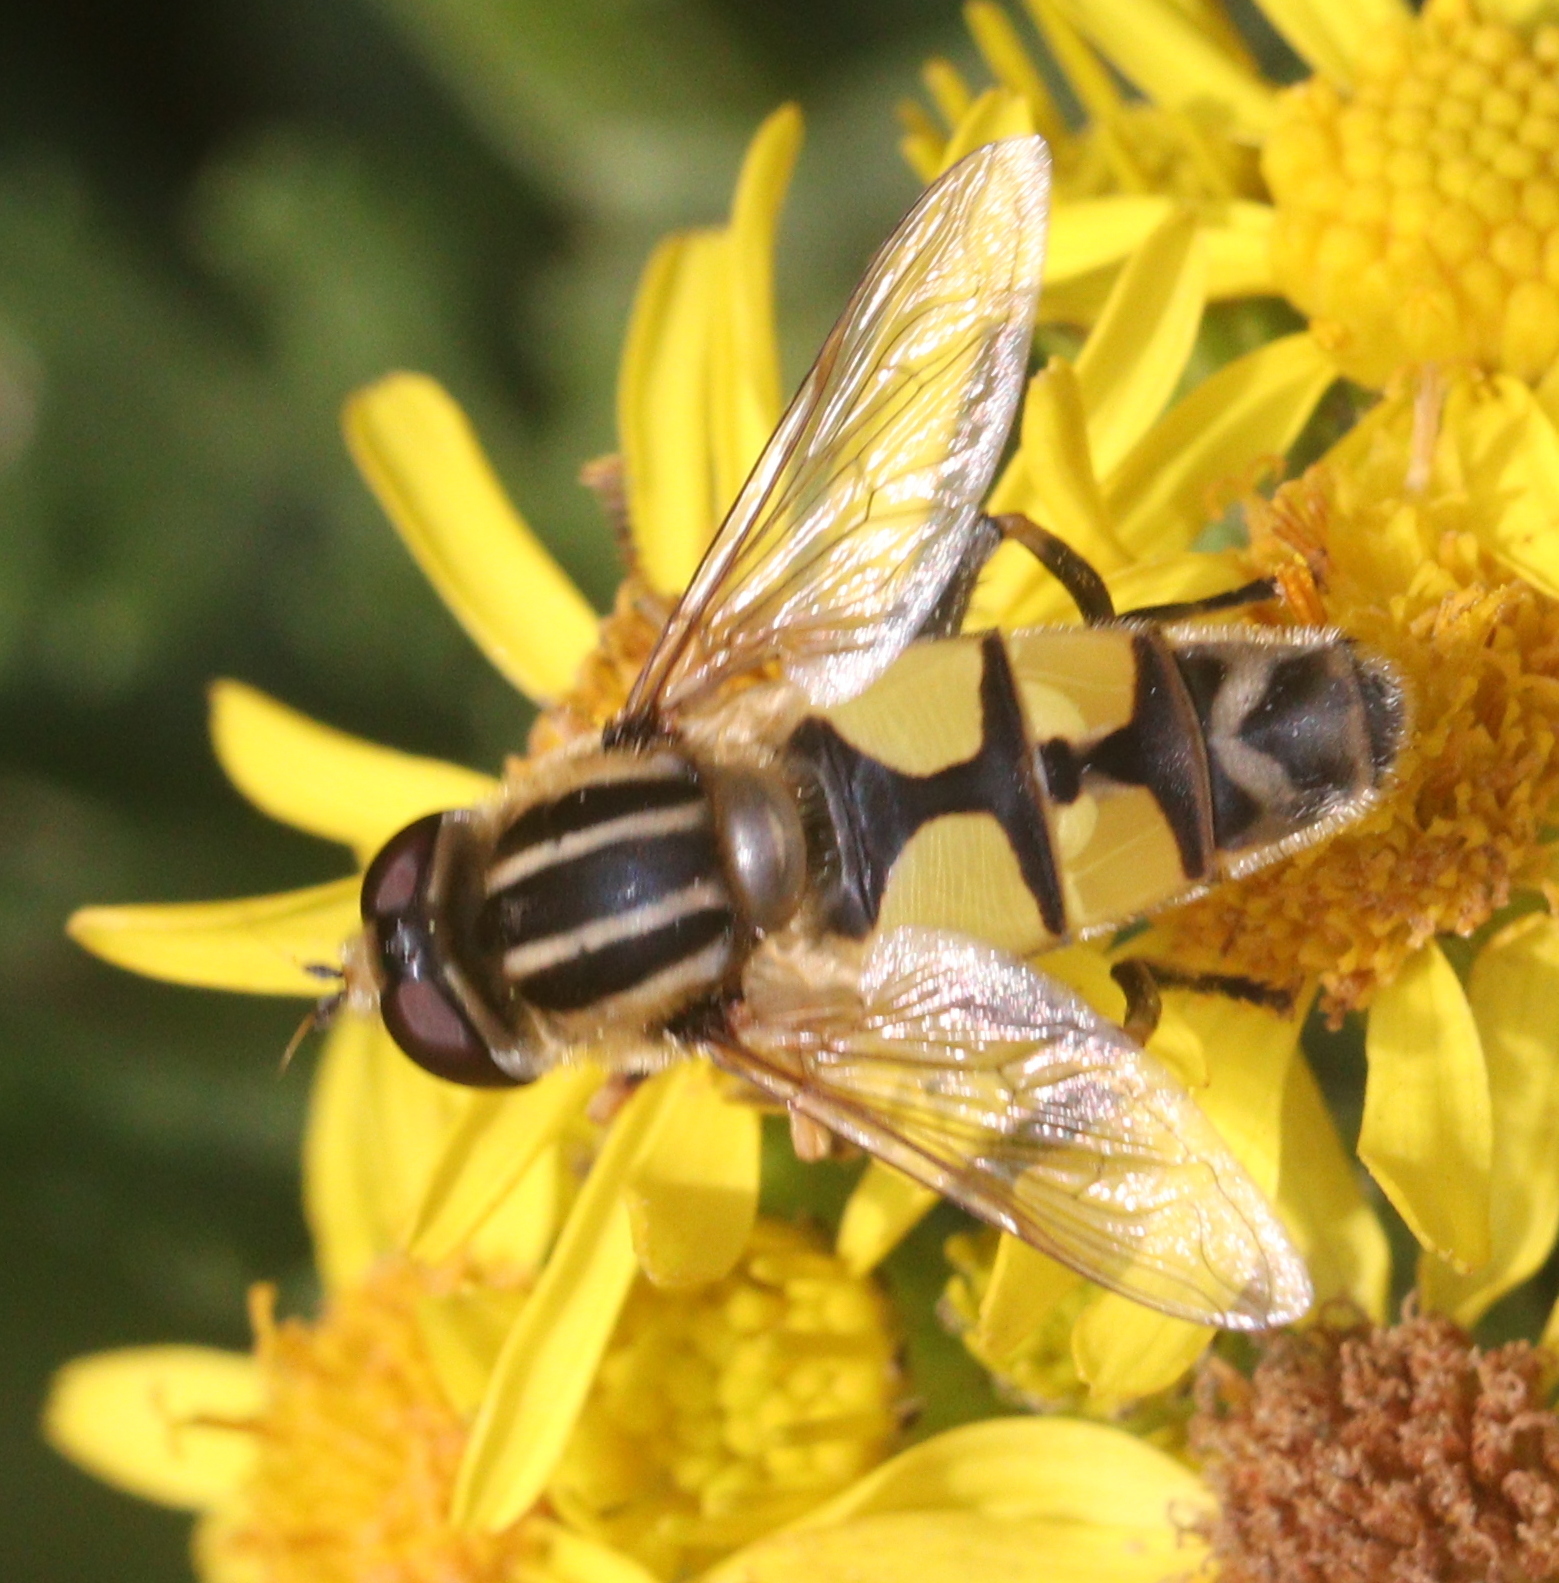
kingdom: Animalia
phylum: Arthropoda
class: Insecta
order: Diptera
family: Syrphidae
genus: Helophilus
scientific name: Helophilus trivittatus
